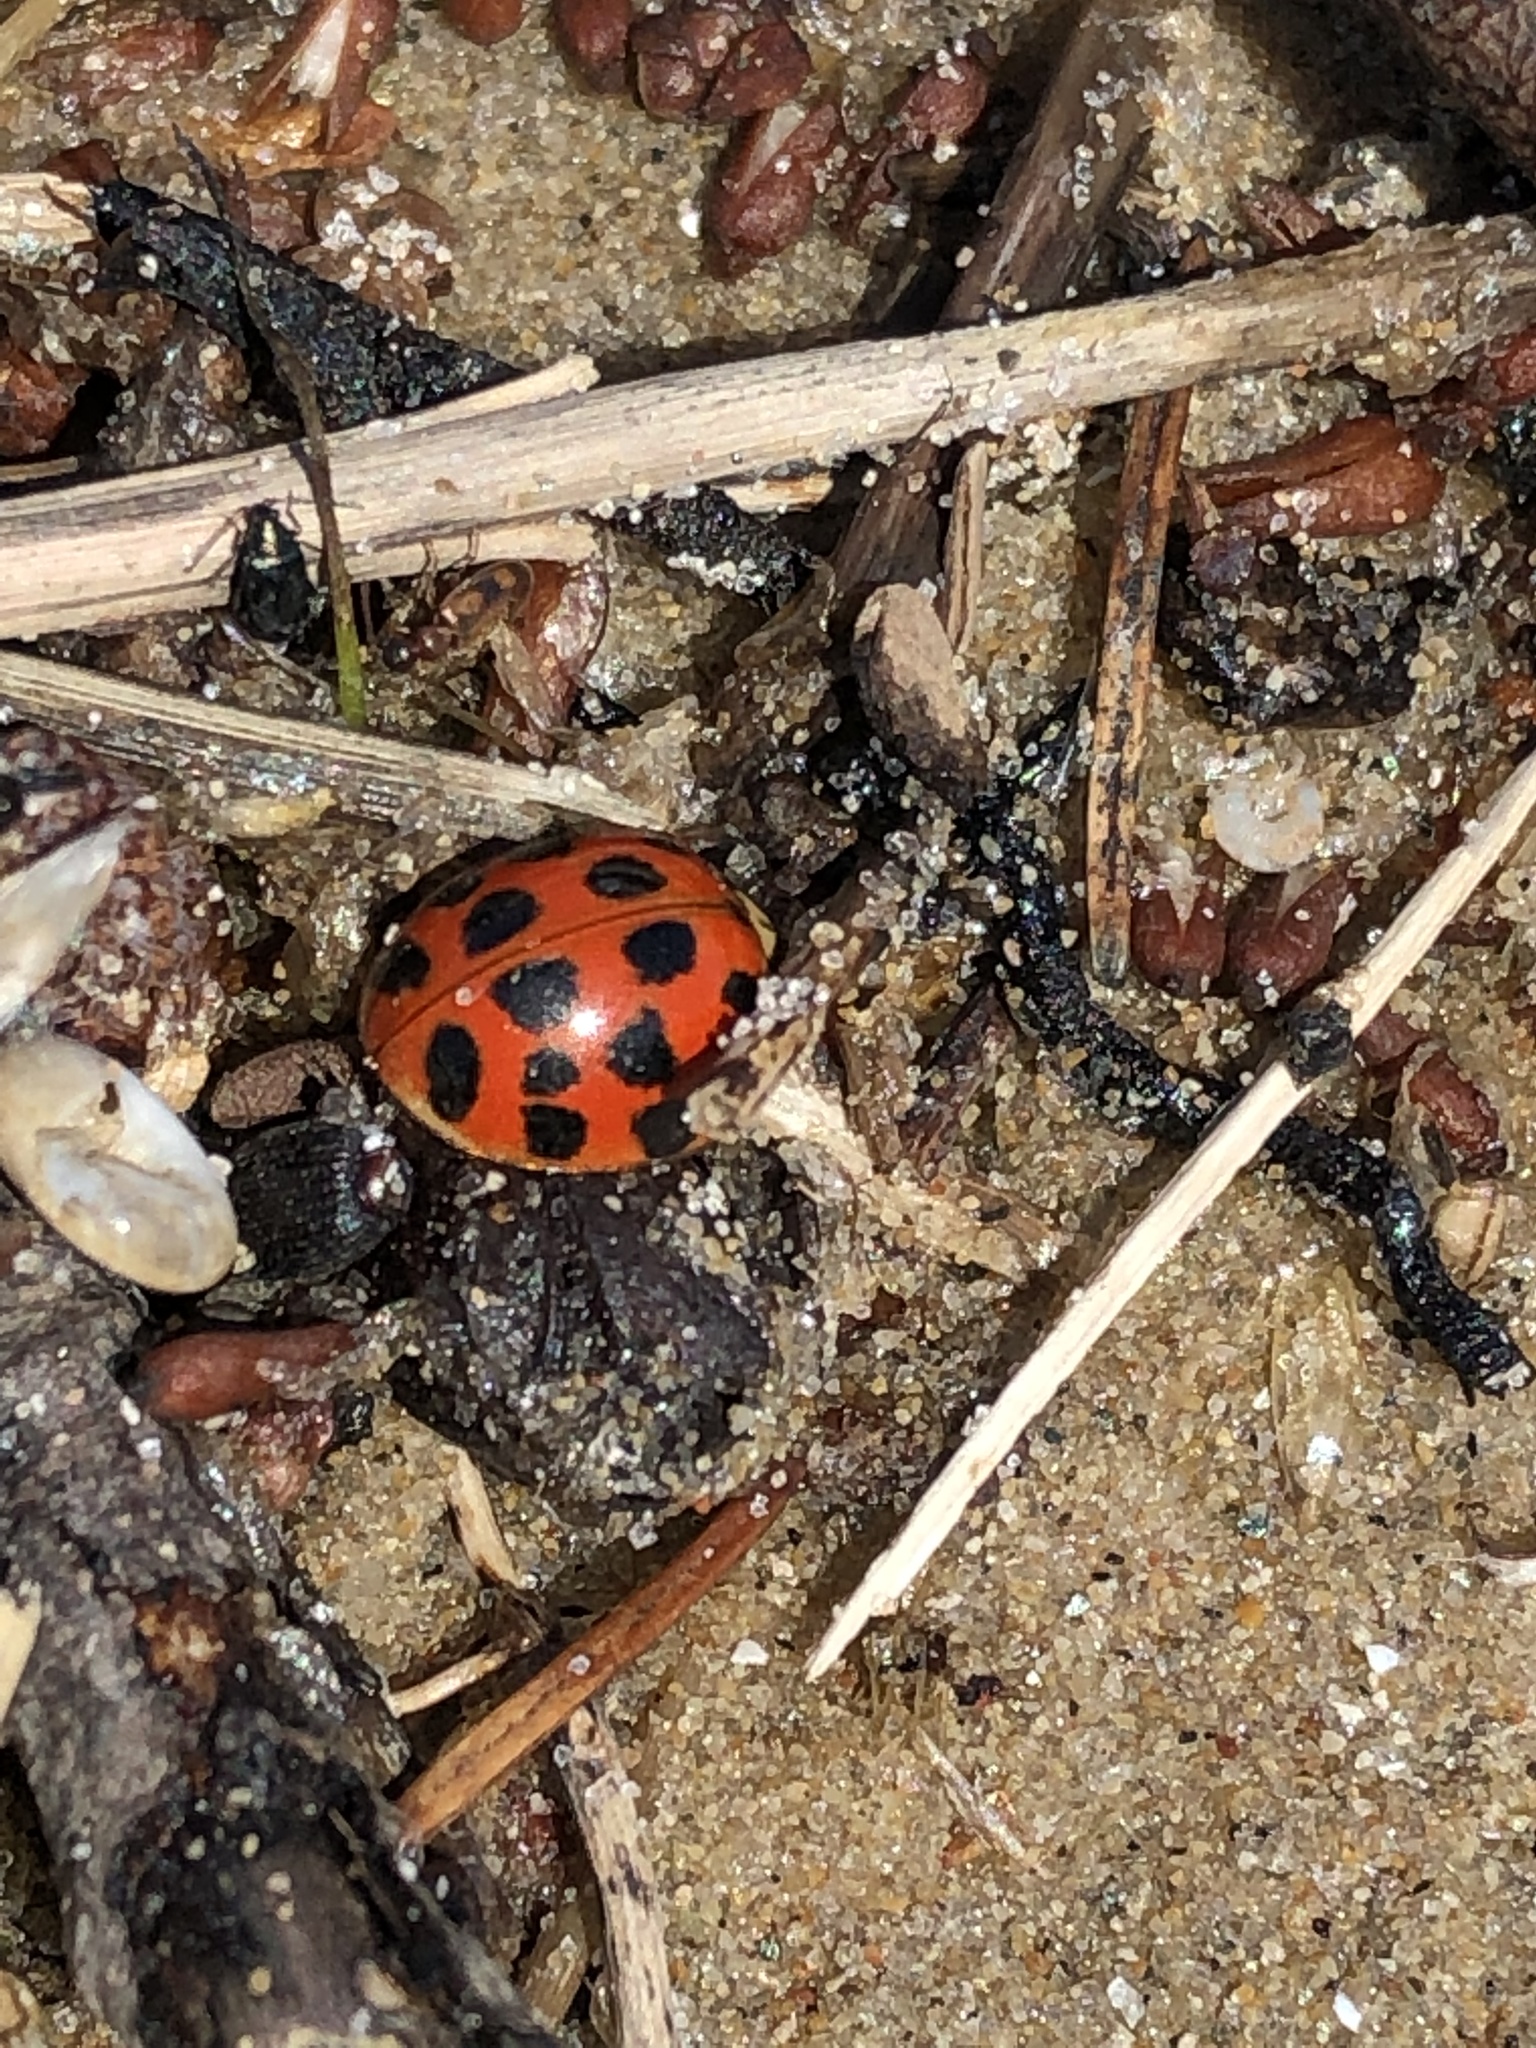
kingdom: Animalia
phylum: Arthropoda
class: Insecta
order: Coleoptera
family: Coccinellidae
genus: Harmonia
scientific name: Harmonia axyridis
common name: Harlequin ladybird
